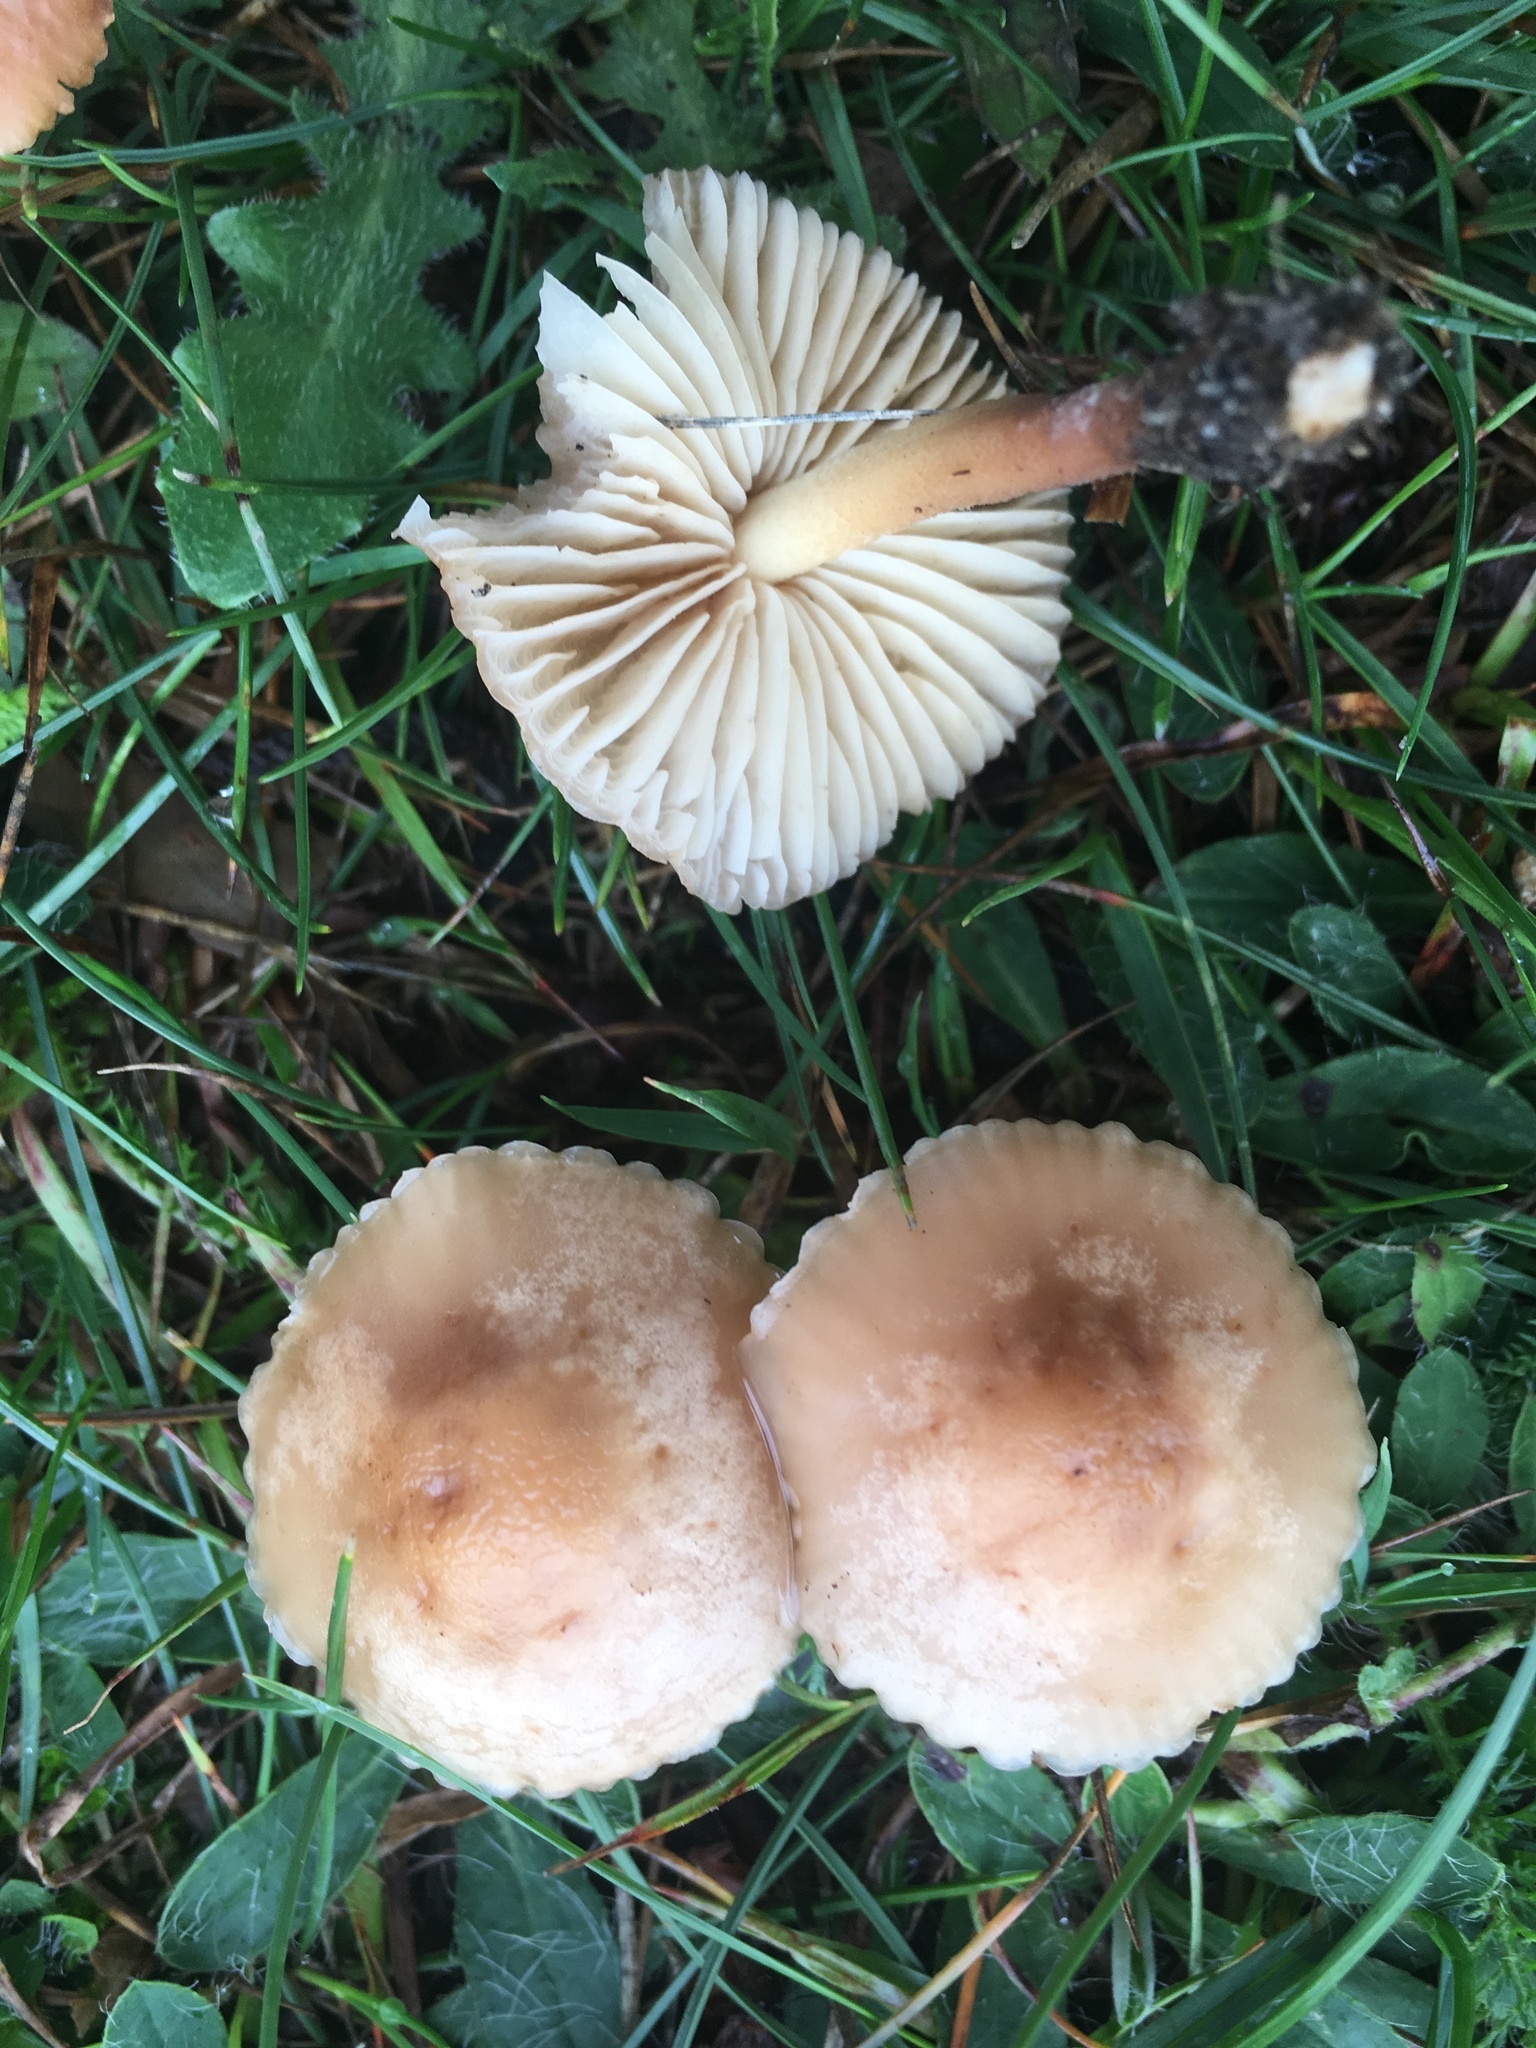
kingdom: Fungi
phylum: Basidiomycota
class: Agaricomycetes
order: Agaricales
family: Marasmiaceae
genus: Marasmius
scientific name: Marasmius oreades
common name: Fairy ring champignon
